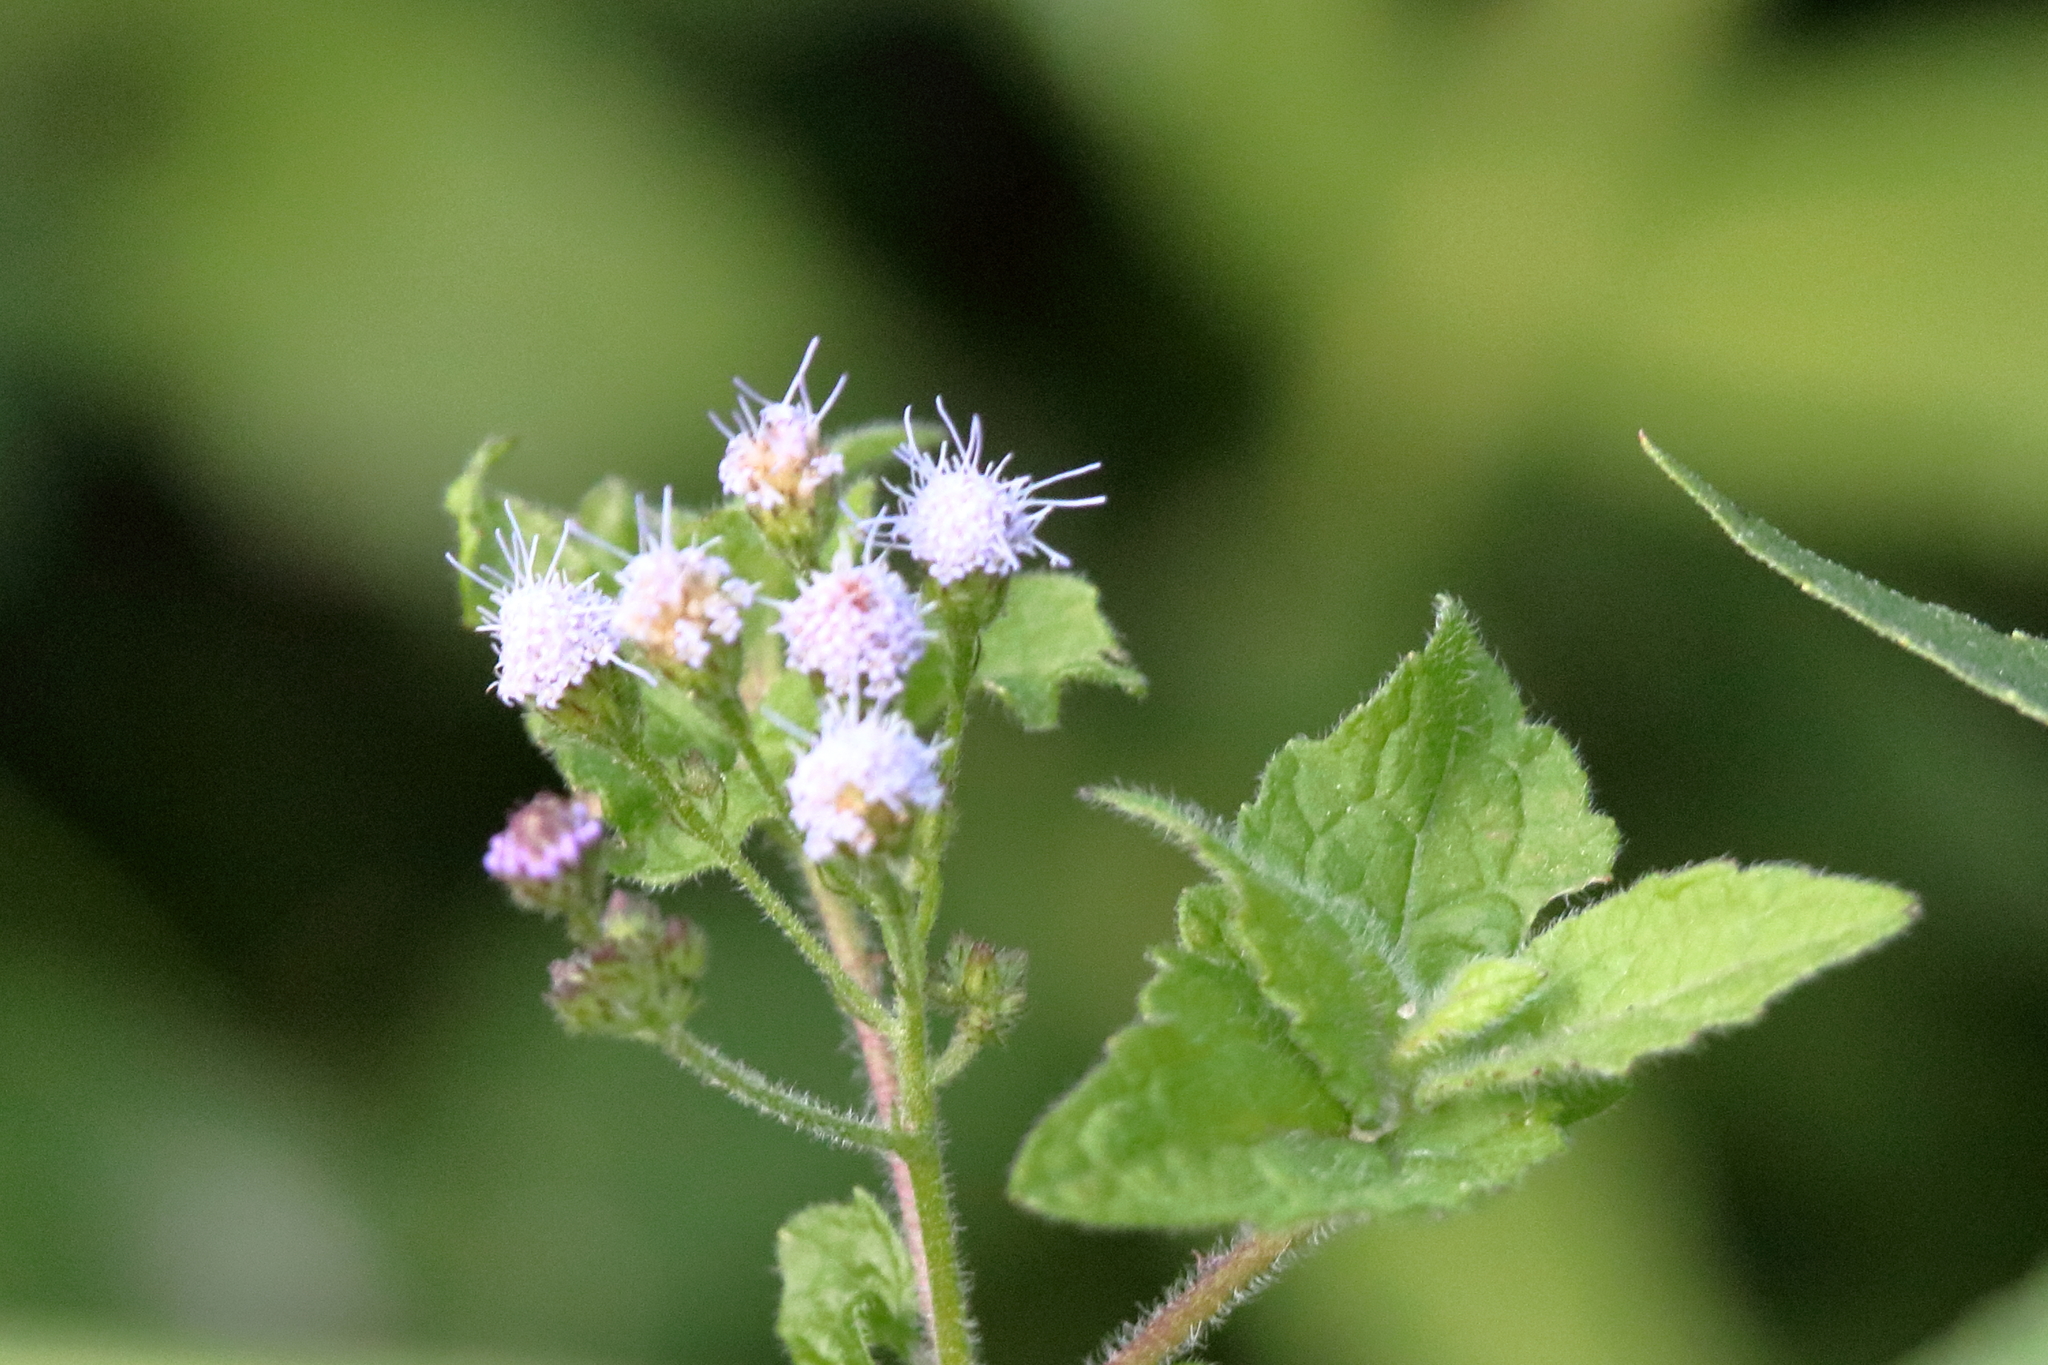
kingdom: Plantae
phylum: Tracheophyta
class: Magnoliopsida
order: Asterales
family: Asteraceae
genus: Conoclinium
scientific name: Conoclinium coelestinum
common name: Blue mistflower
